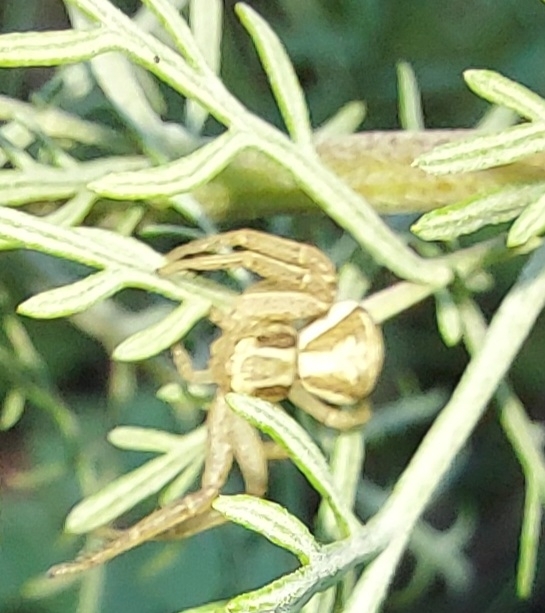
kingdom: Animalia
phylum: Arthropoda
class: Arachnida
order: Araneae
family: Thomisidae
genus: Xysticus
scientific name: Xysticus ulmi
